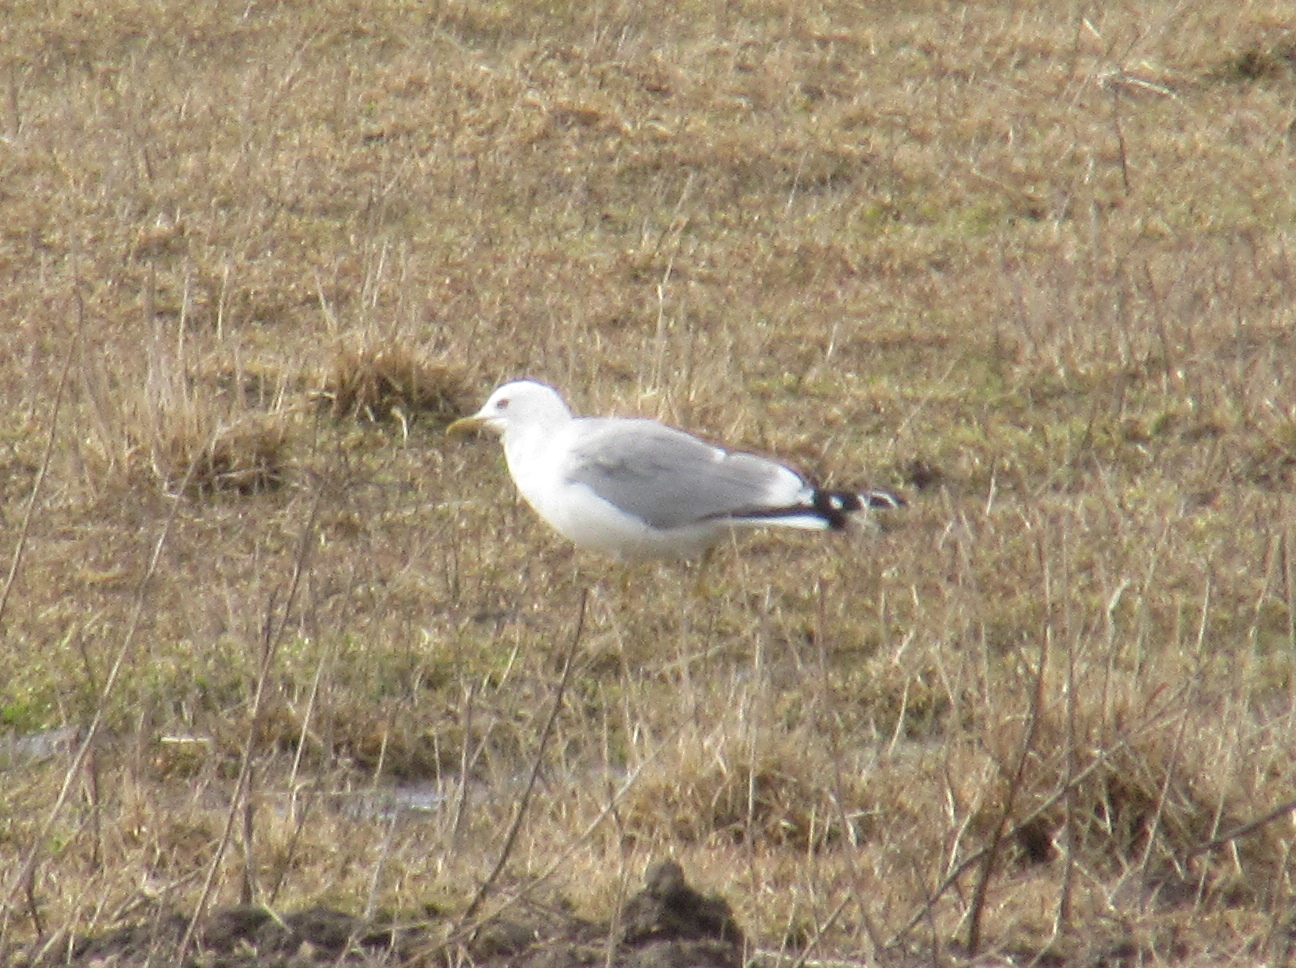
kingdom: Animalia
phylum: Chordata
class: Aves
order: Charadriiformes
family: Laridae
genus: Larus
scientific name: Larus canus
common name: Mew gull
